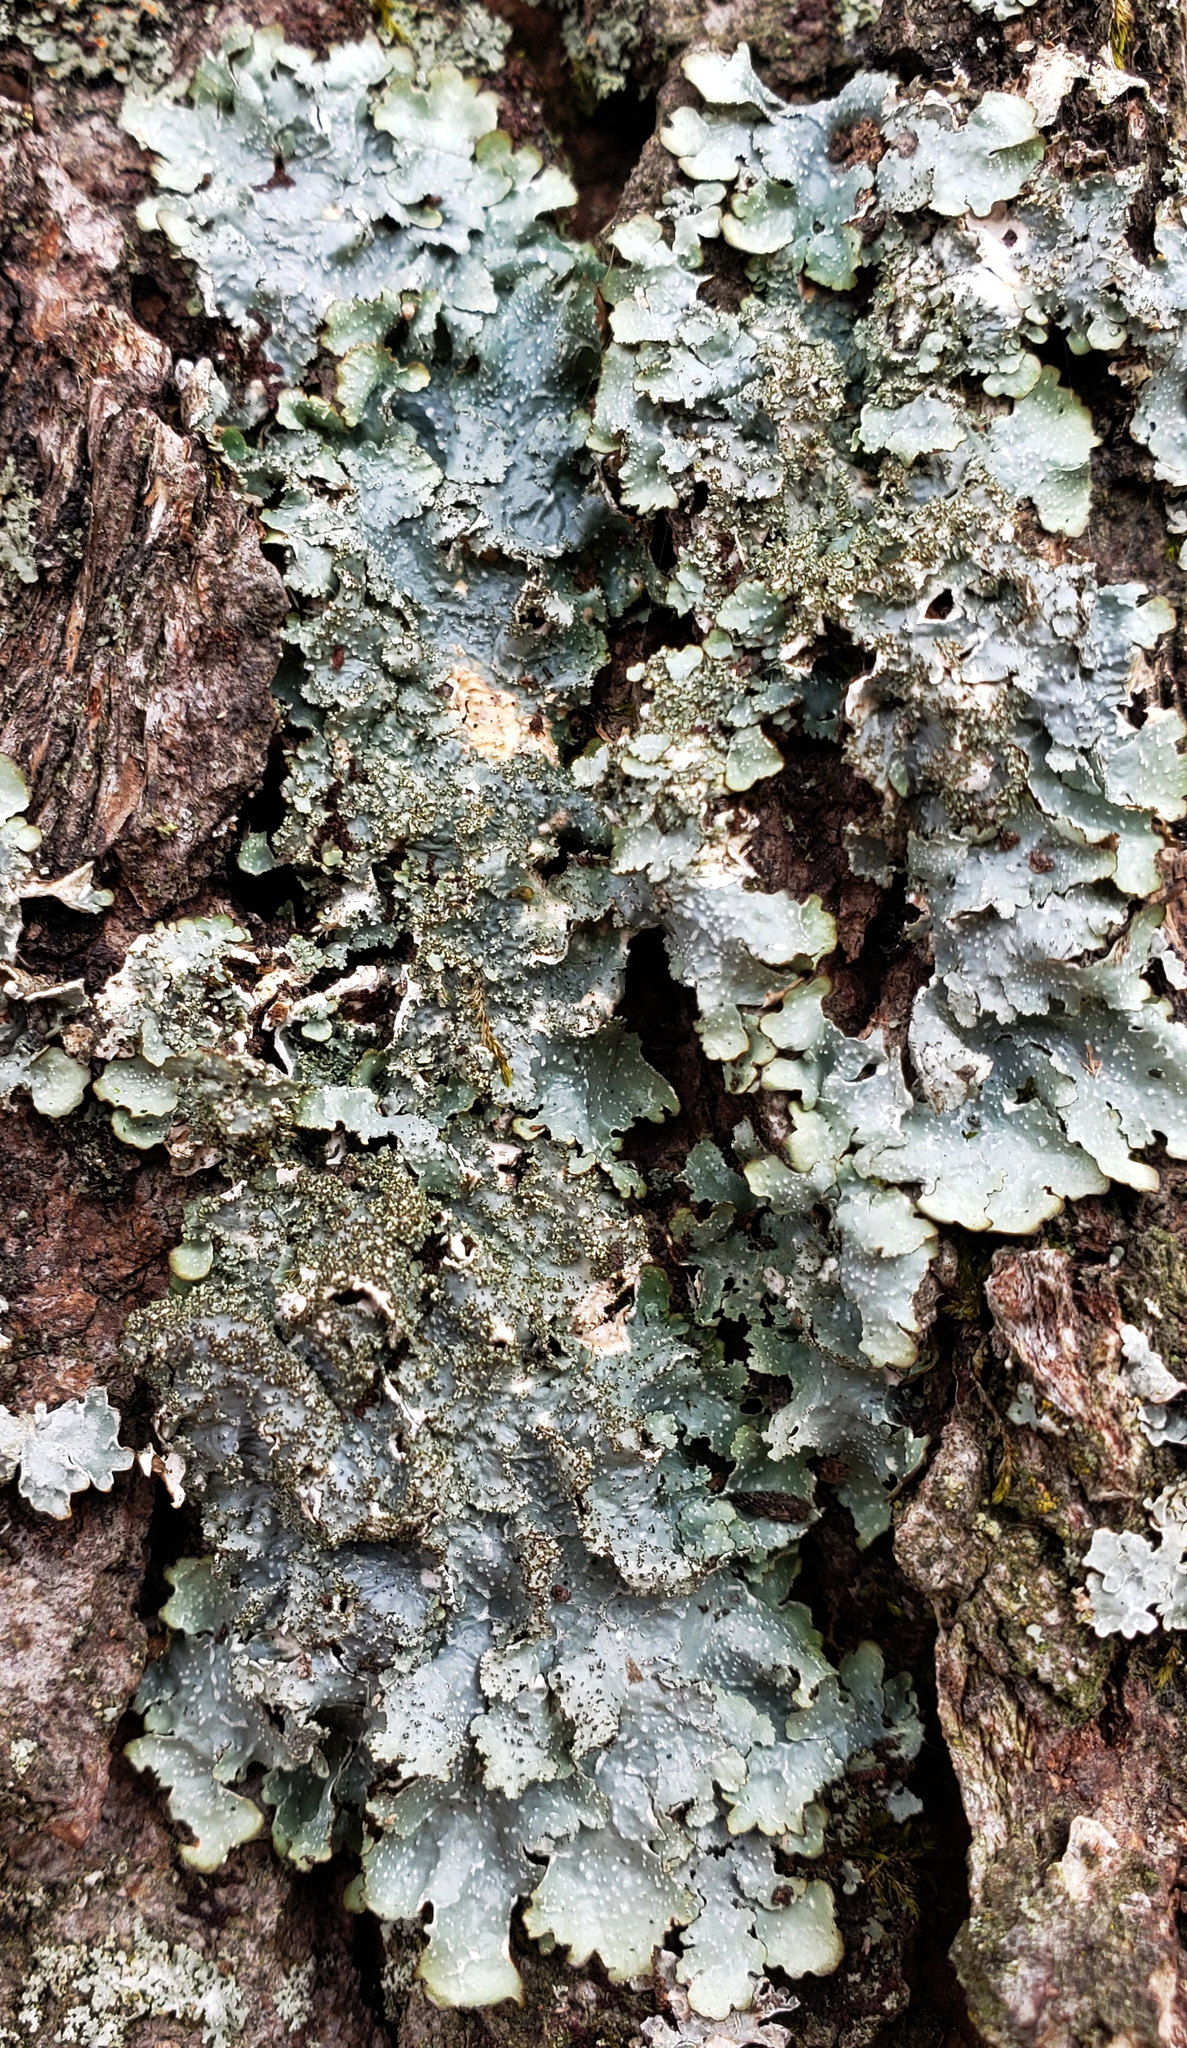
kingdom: Fungi
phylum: Ascomycota
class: Lecanoromycetes
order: Lecanorales
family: Parmeliaceae
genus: Punctelia
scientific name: Punctelia rudecta
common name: Rough speckled shield lichen
